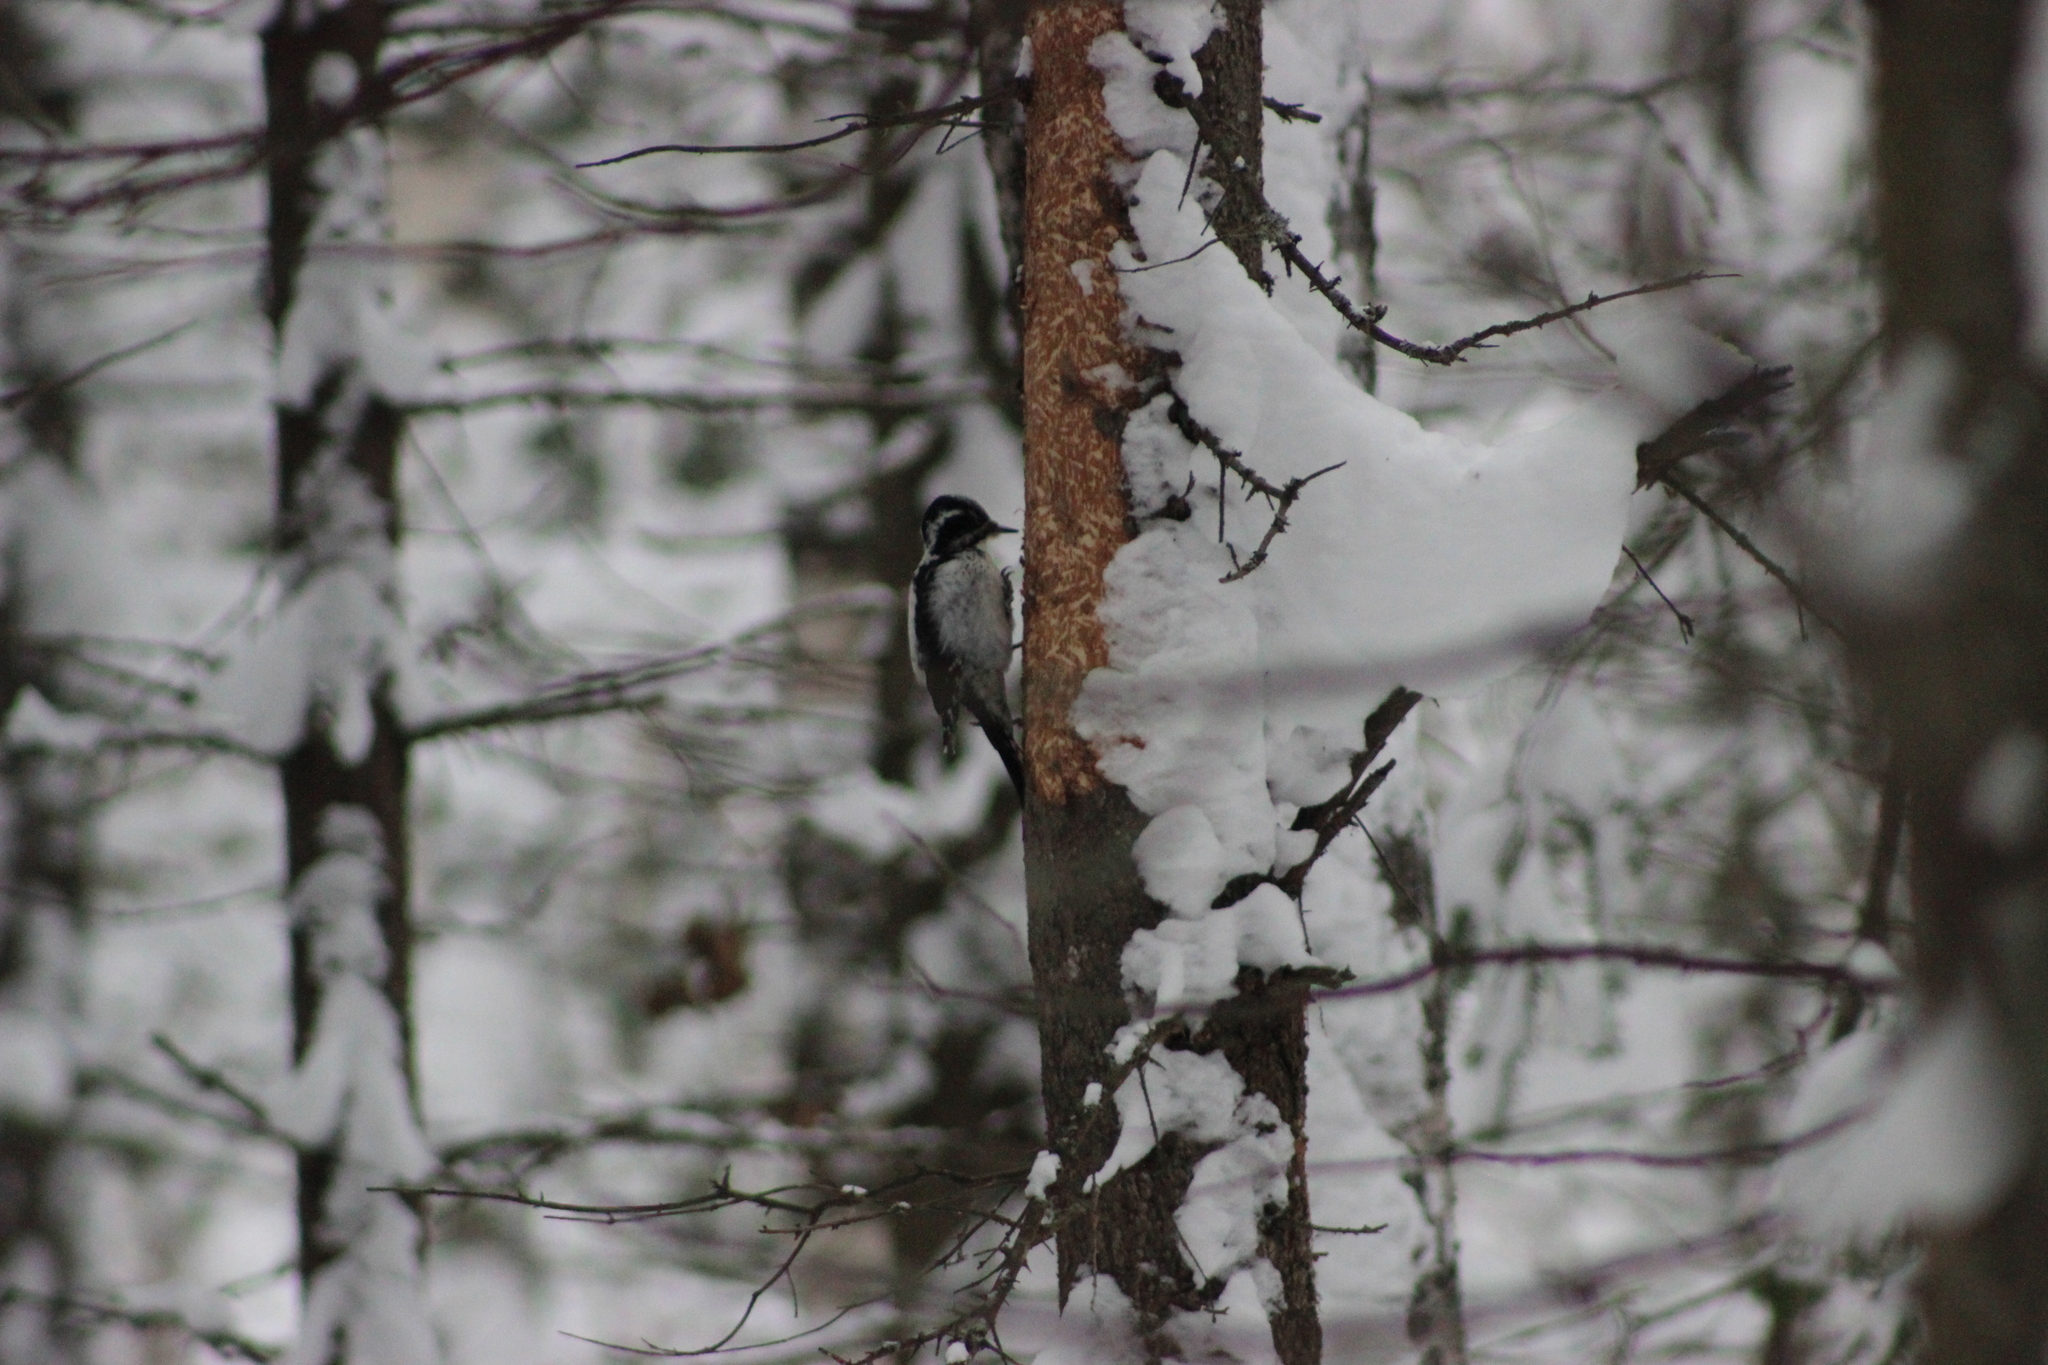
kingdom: Animalia
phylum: Chordata
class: Aves
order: Piciformes
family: Picidae
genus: Picoides
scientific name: Picoides tridactylus
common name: Eurasian three-toed woodpecker
